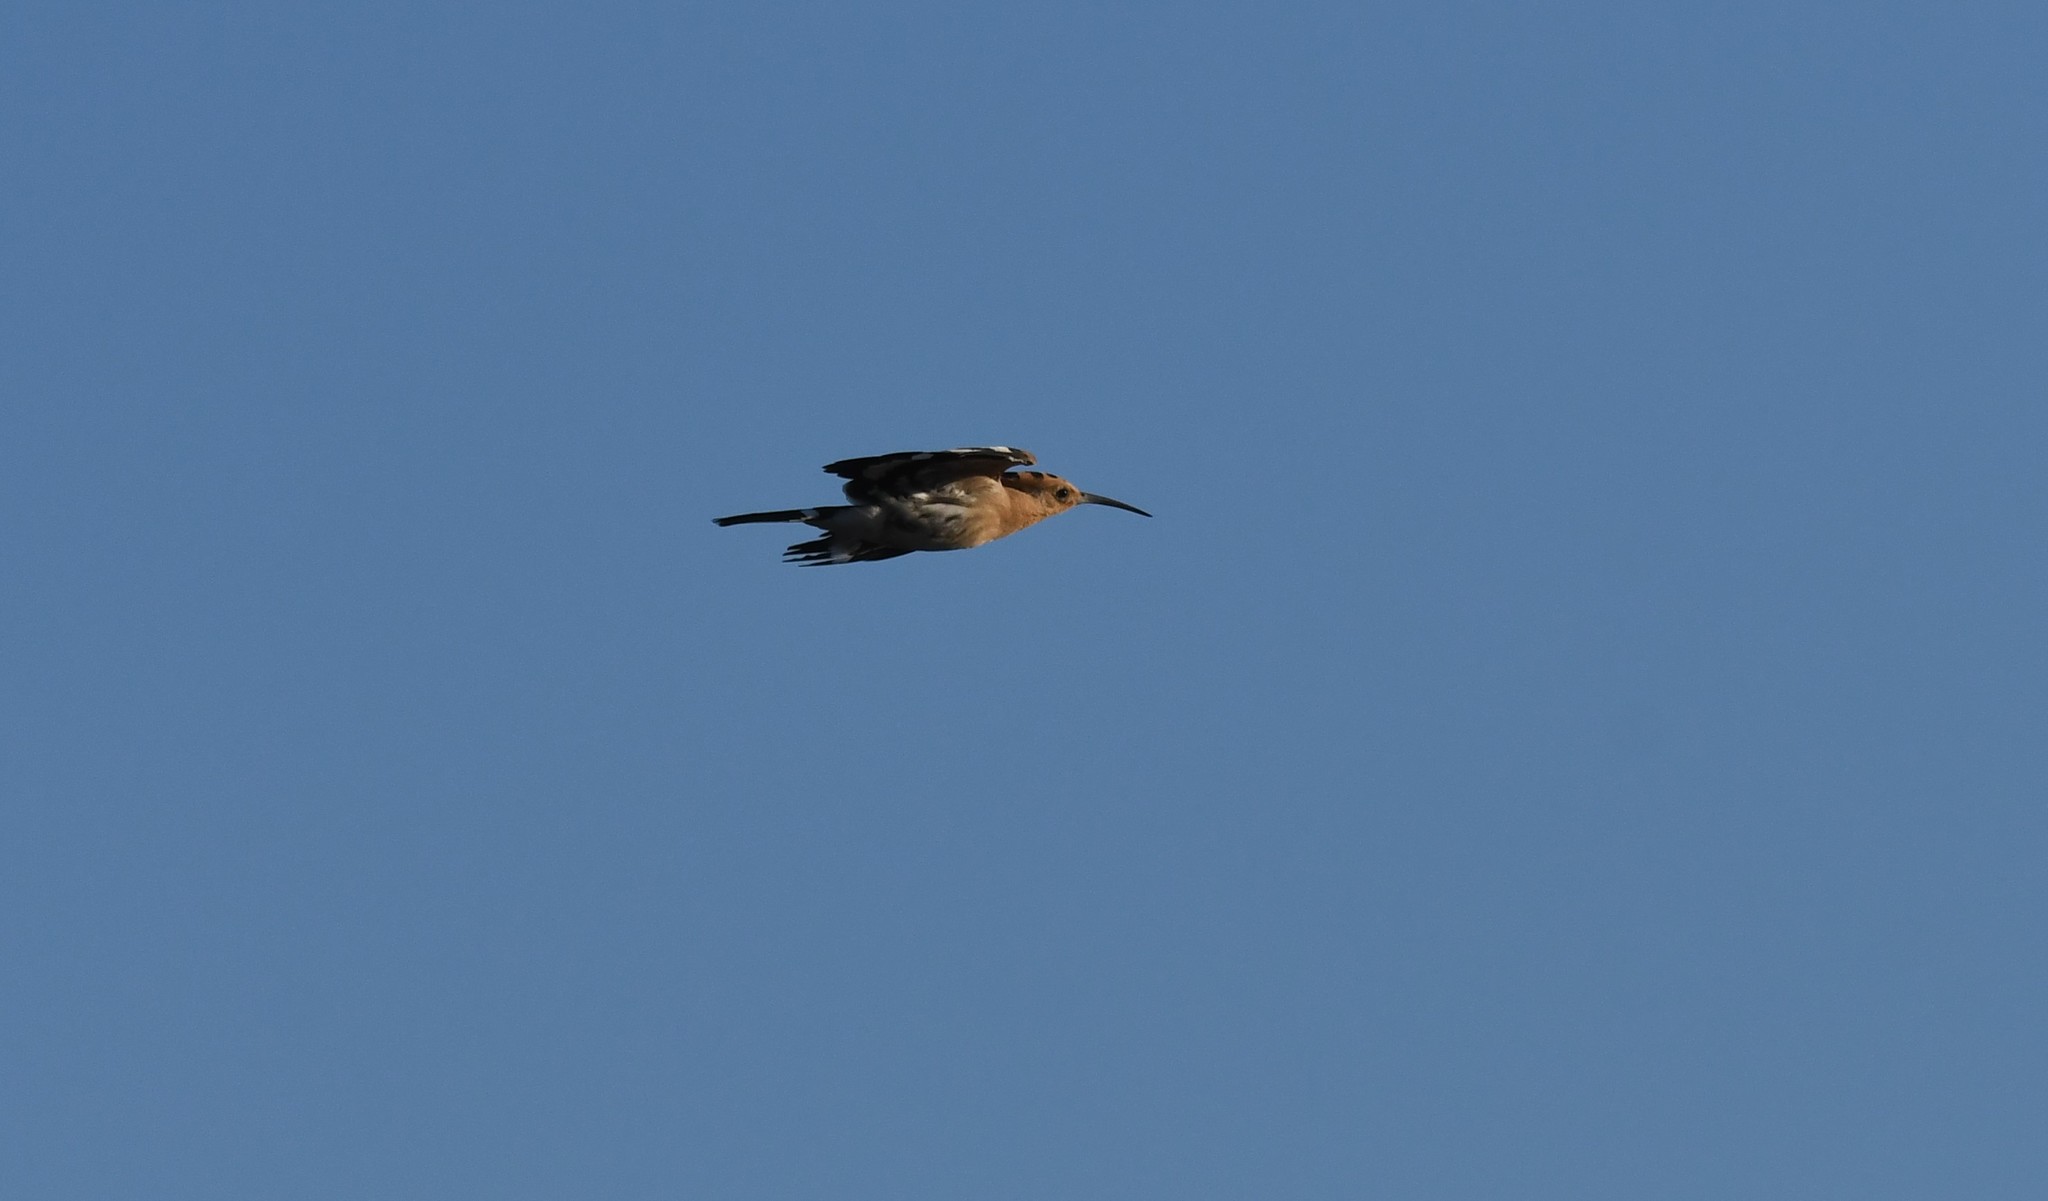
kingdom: Animalia
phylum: Chordata
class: Aves
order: Bucerotiformes
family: Upupidae
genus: Upupa
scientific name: Upupa epops
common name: Eurasian hoopoe
